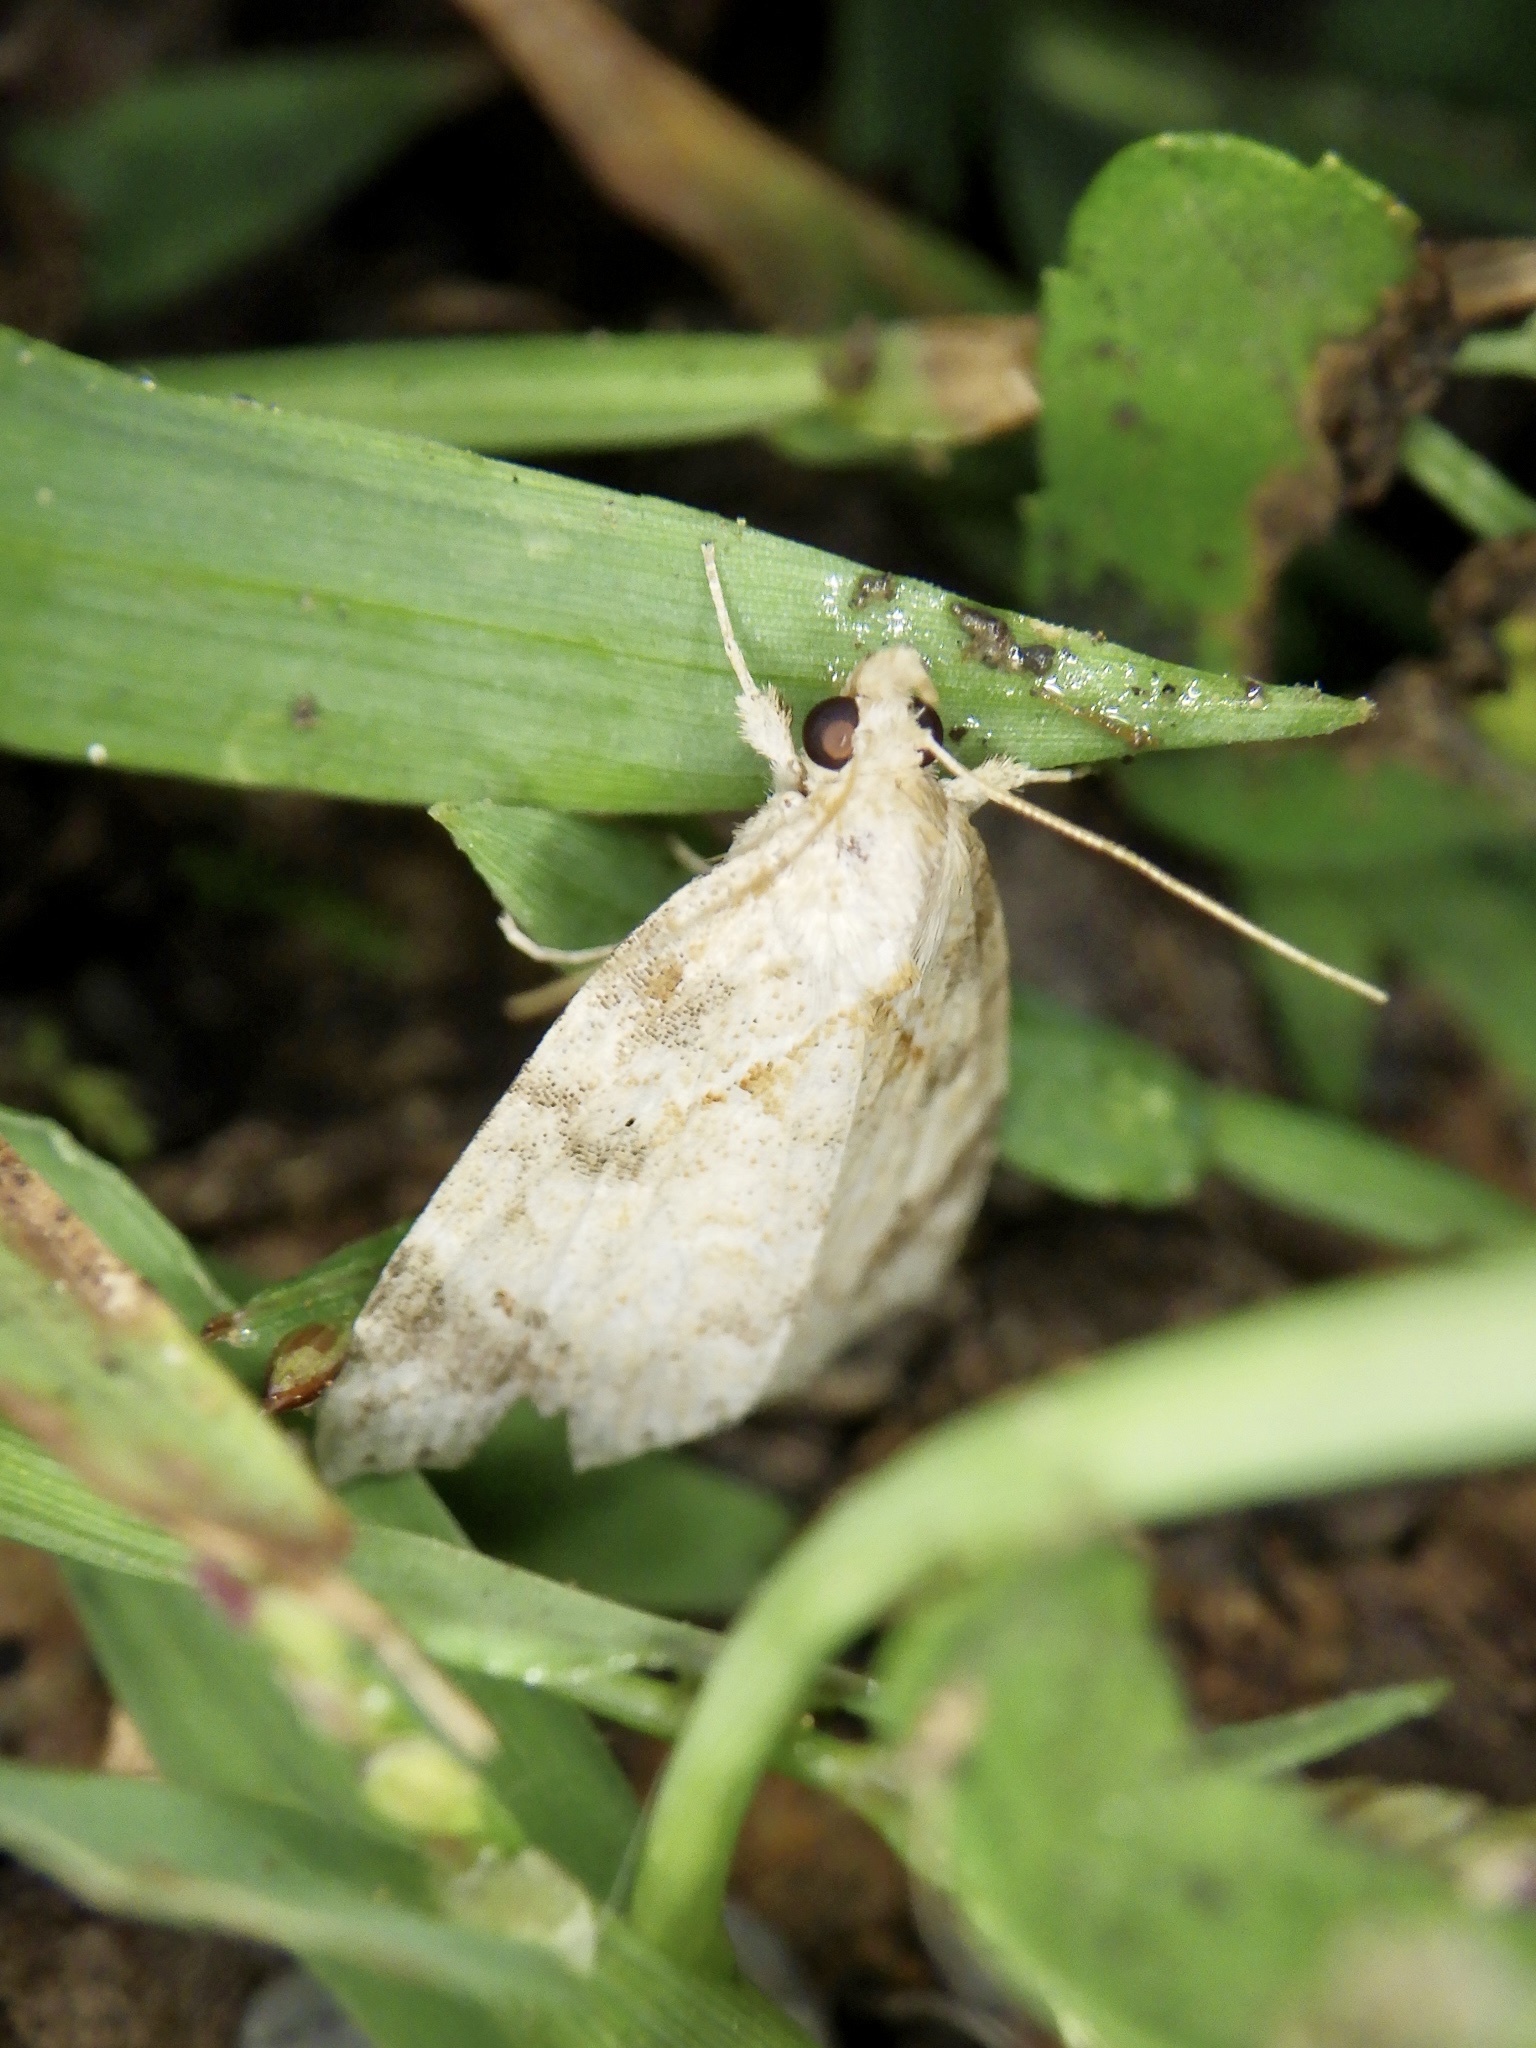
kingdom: Animalia
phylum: Arthropoda
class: Insecta
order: Lepidoptera
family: Erebidae
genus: Olulis
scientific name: Olulis
